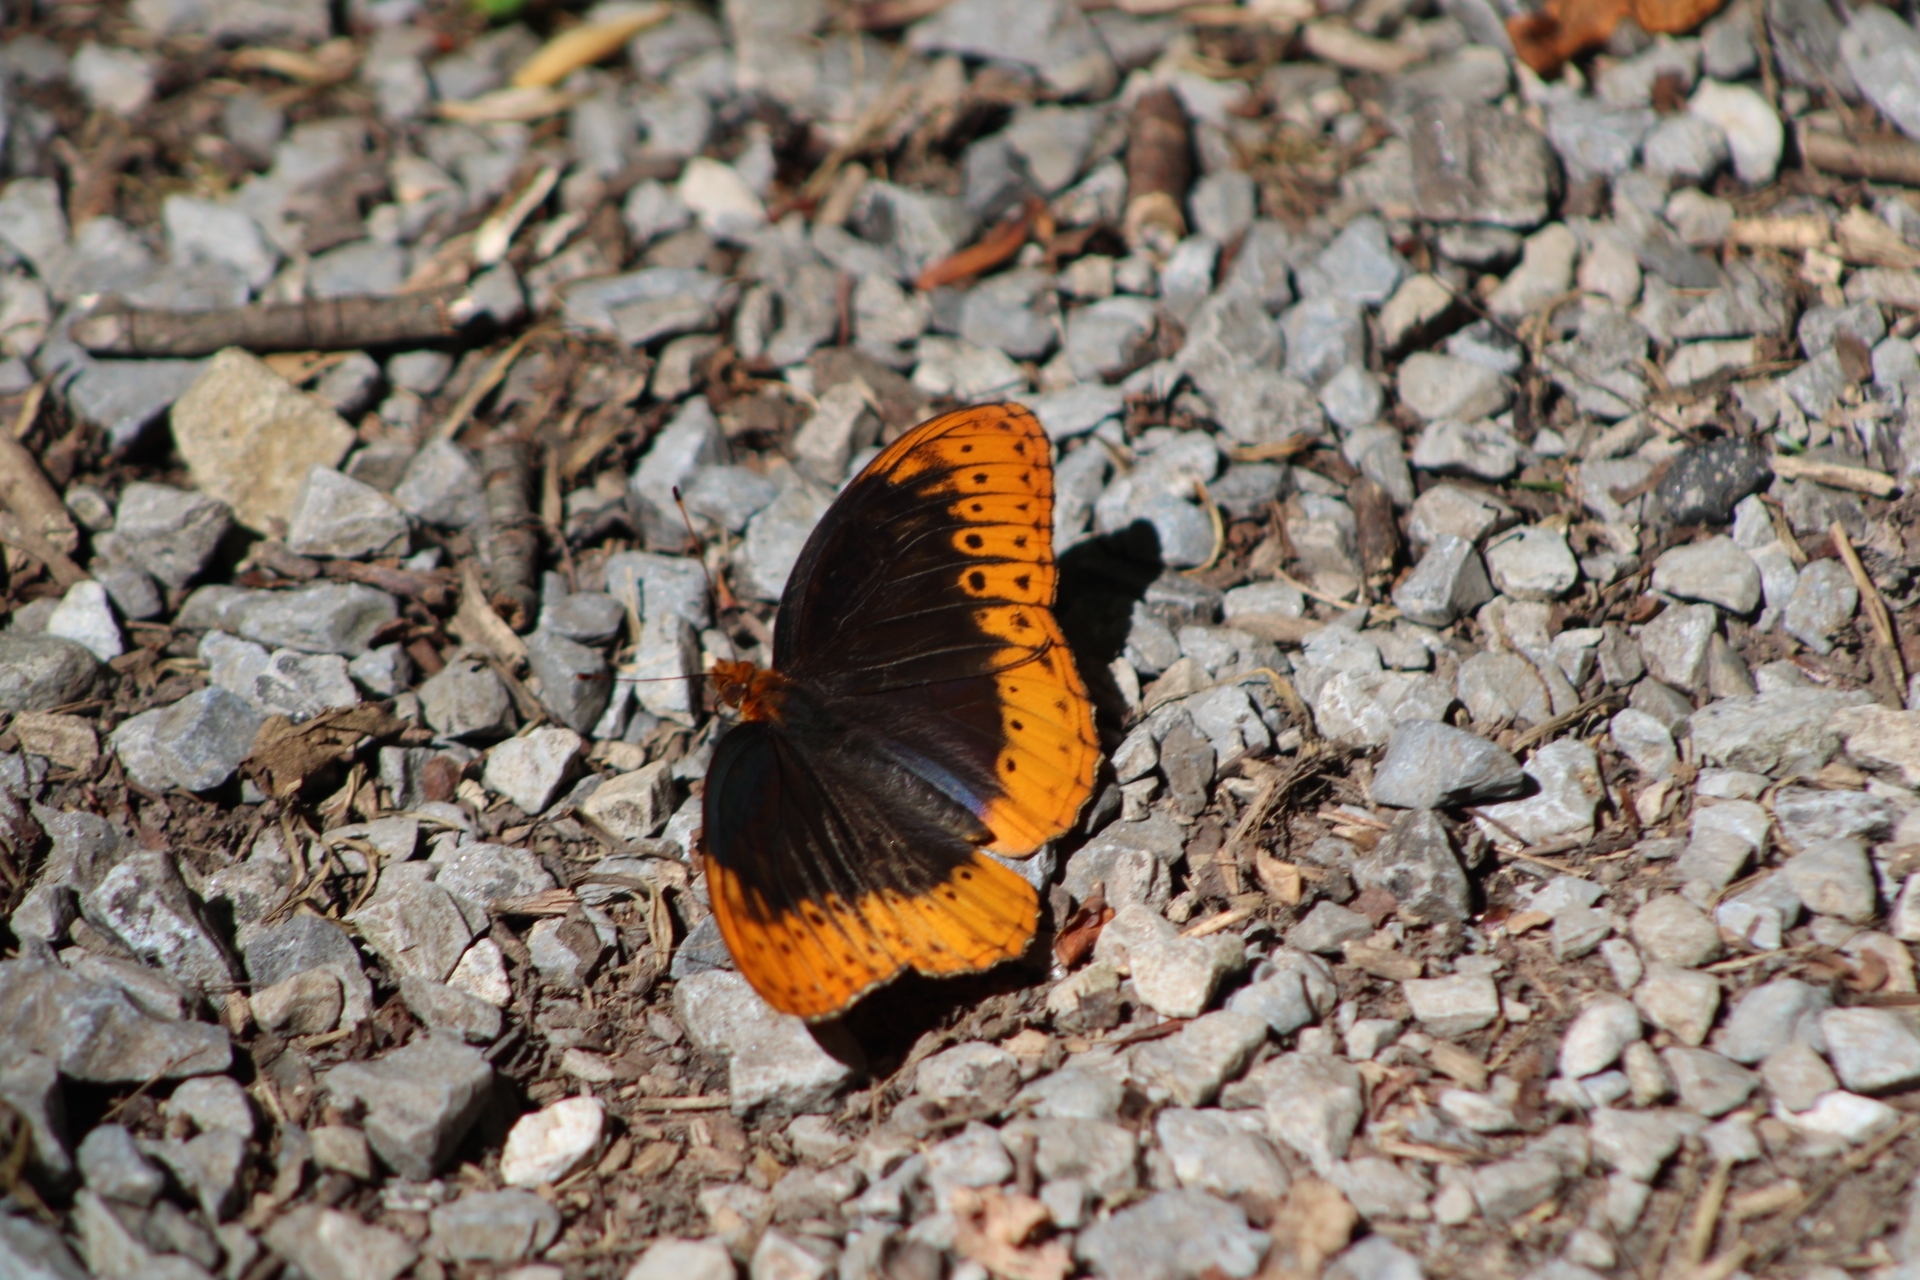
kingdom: Animalia
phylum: Arthropoda
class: Insecta
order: Lepidoptera
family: Nymphalidae
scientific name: Nymphalidae
